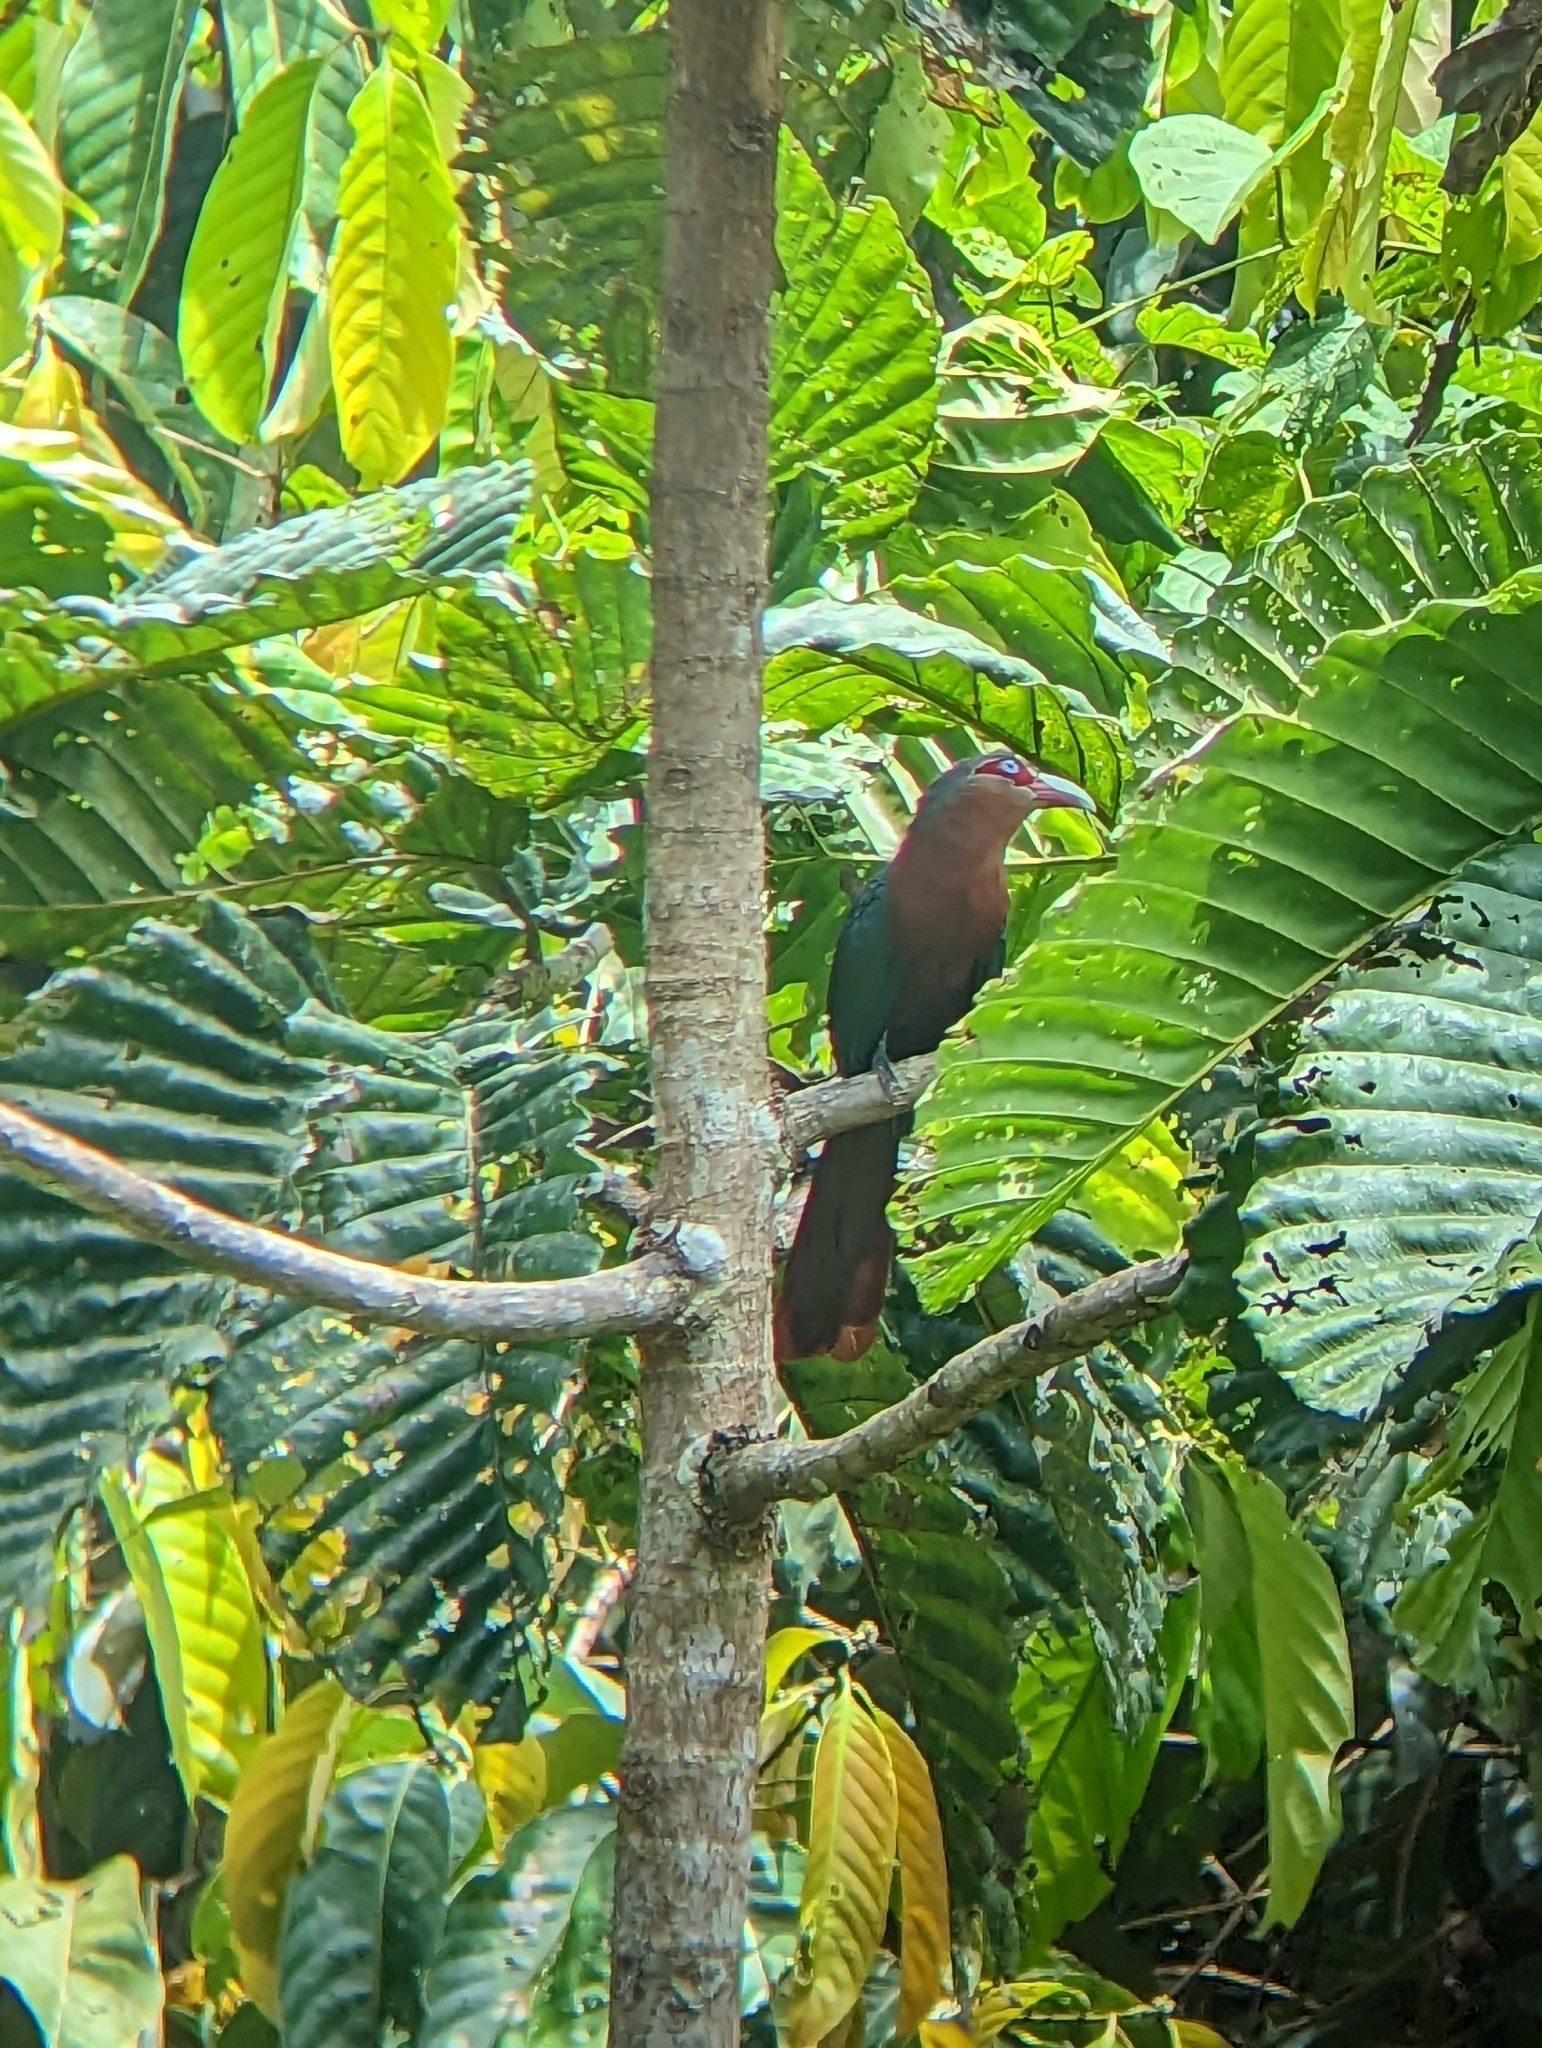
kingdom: Animalia
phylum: Chordata
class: Aves
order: Cuculiformes
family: Cuculidae
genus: Zanclostomus
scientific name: Zanclostomus curvirostris
